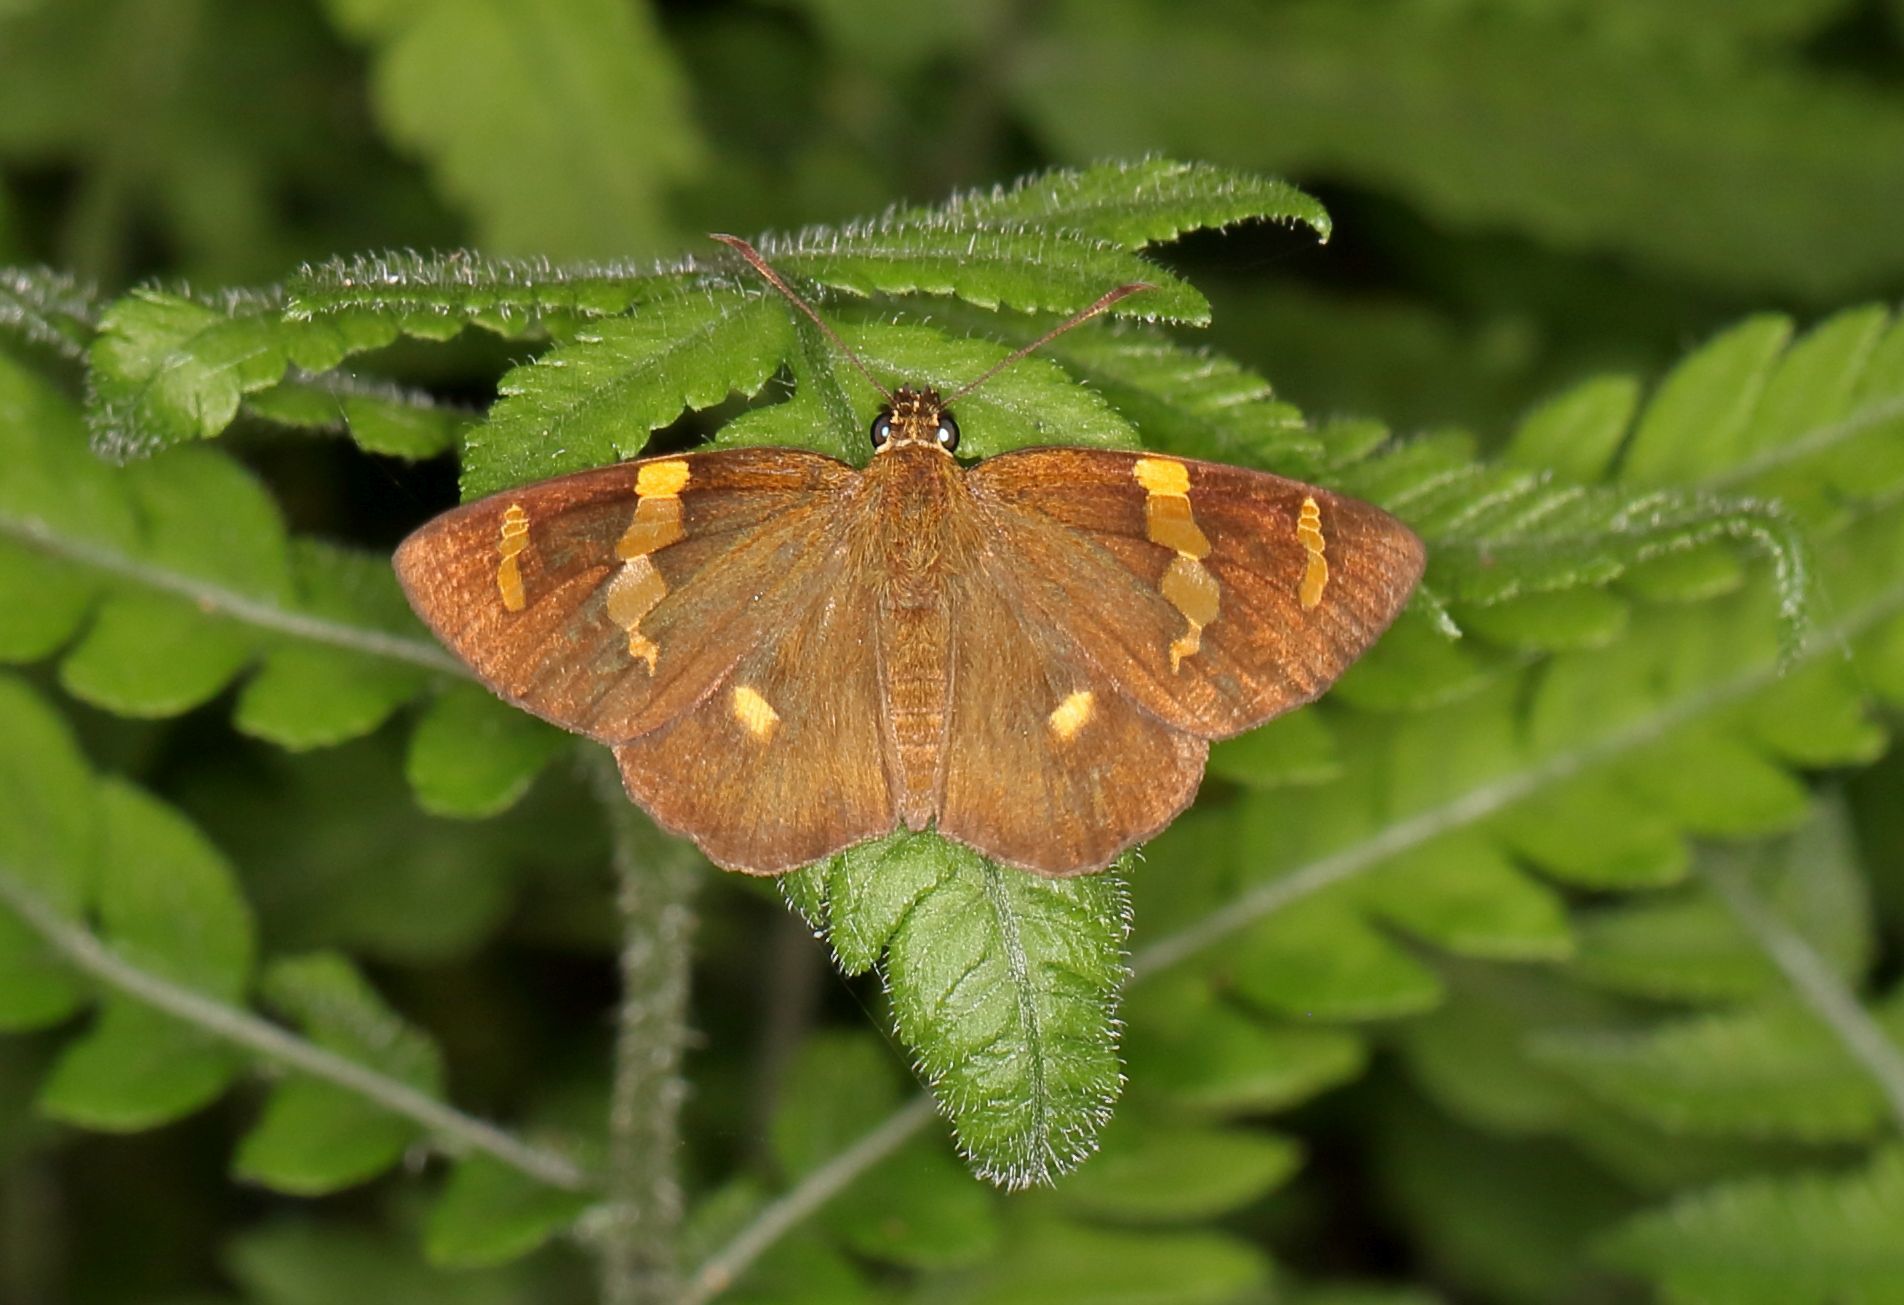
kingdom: Animalia
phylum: Arthropoda
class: Insecta
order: Lepidoptera
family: Hesperiidae
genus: Celaenorrhinus
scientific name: Celaenorrhinus mokeezi
